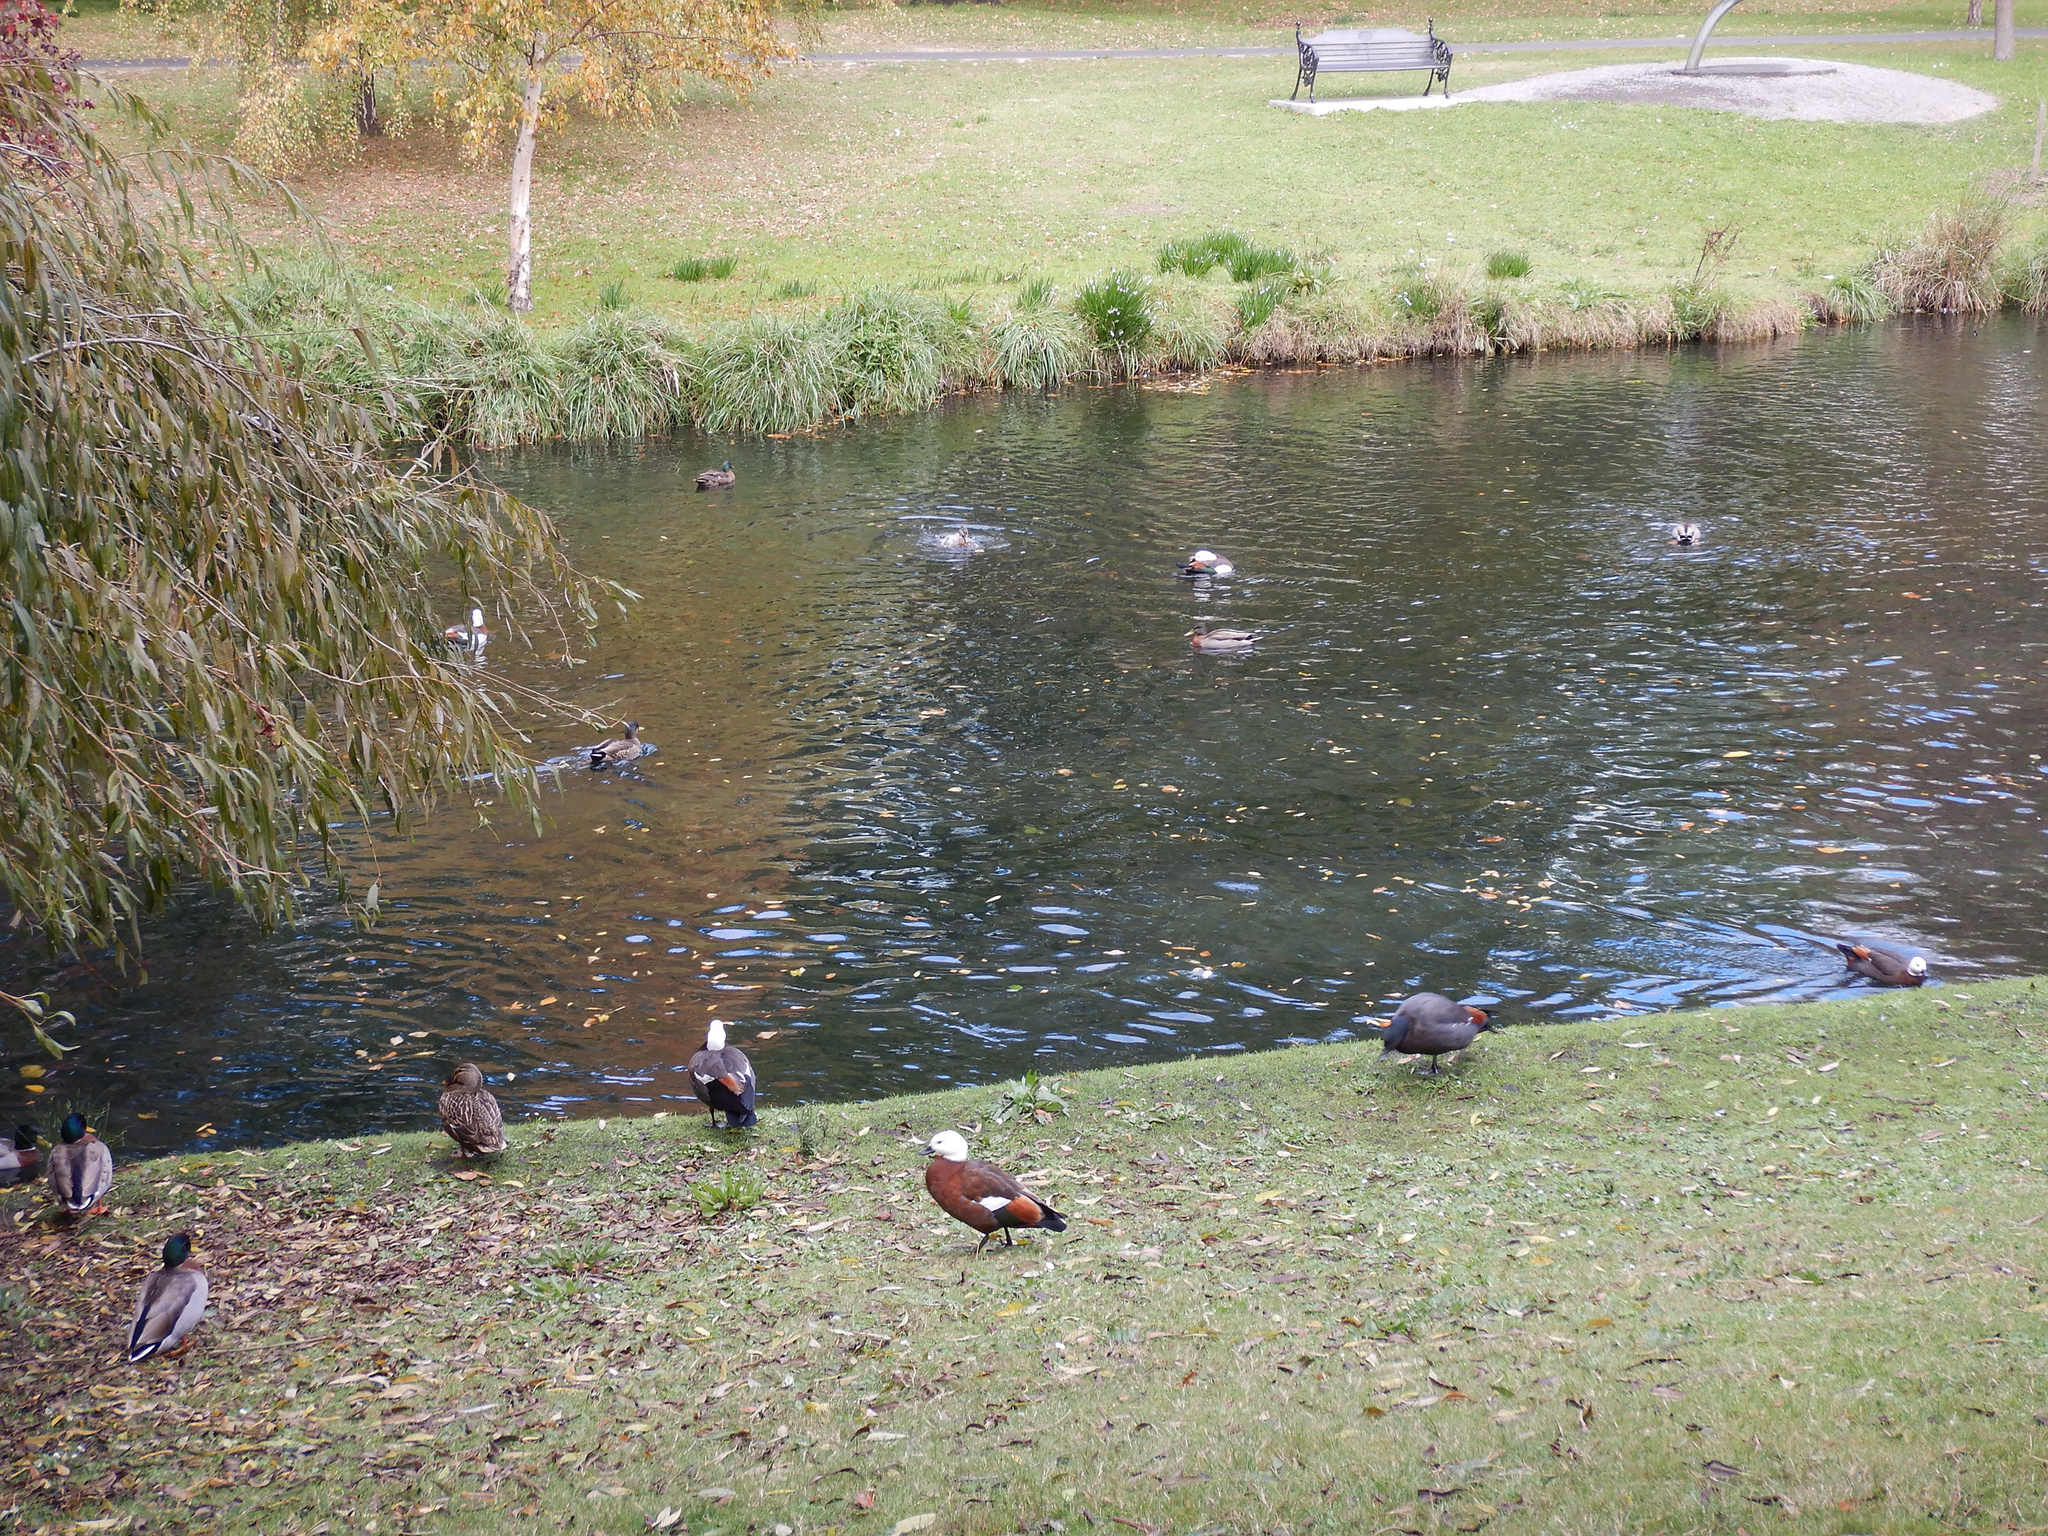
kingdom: Animalia
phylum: Chordata
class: Aves
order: Anseriformes
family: Anatidae
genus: Tadorna
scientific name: Tadorna variegata
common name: Paradise shelduck
